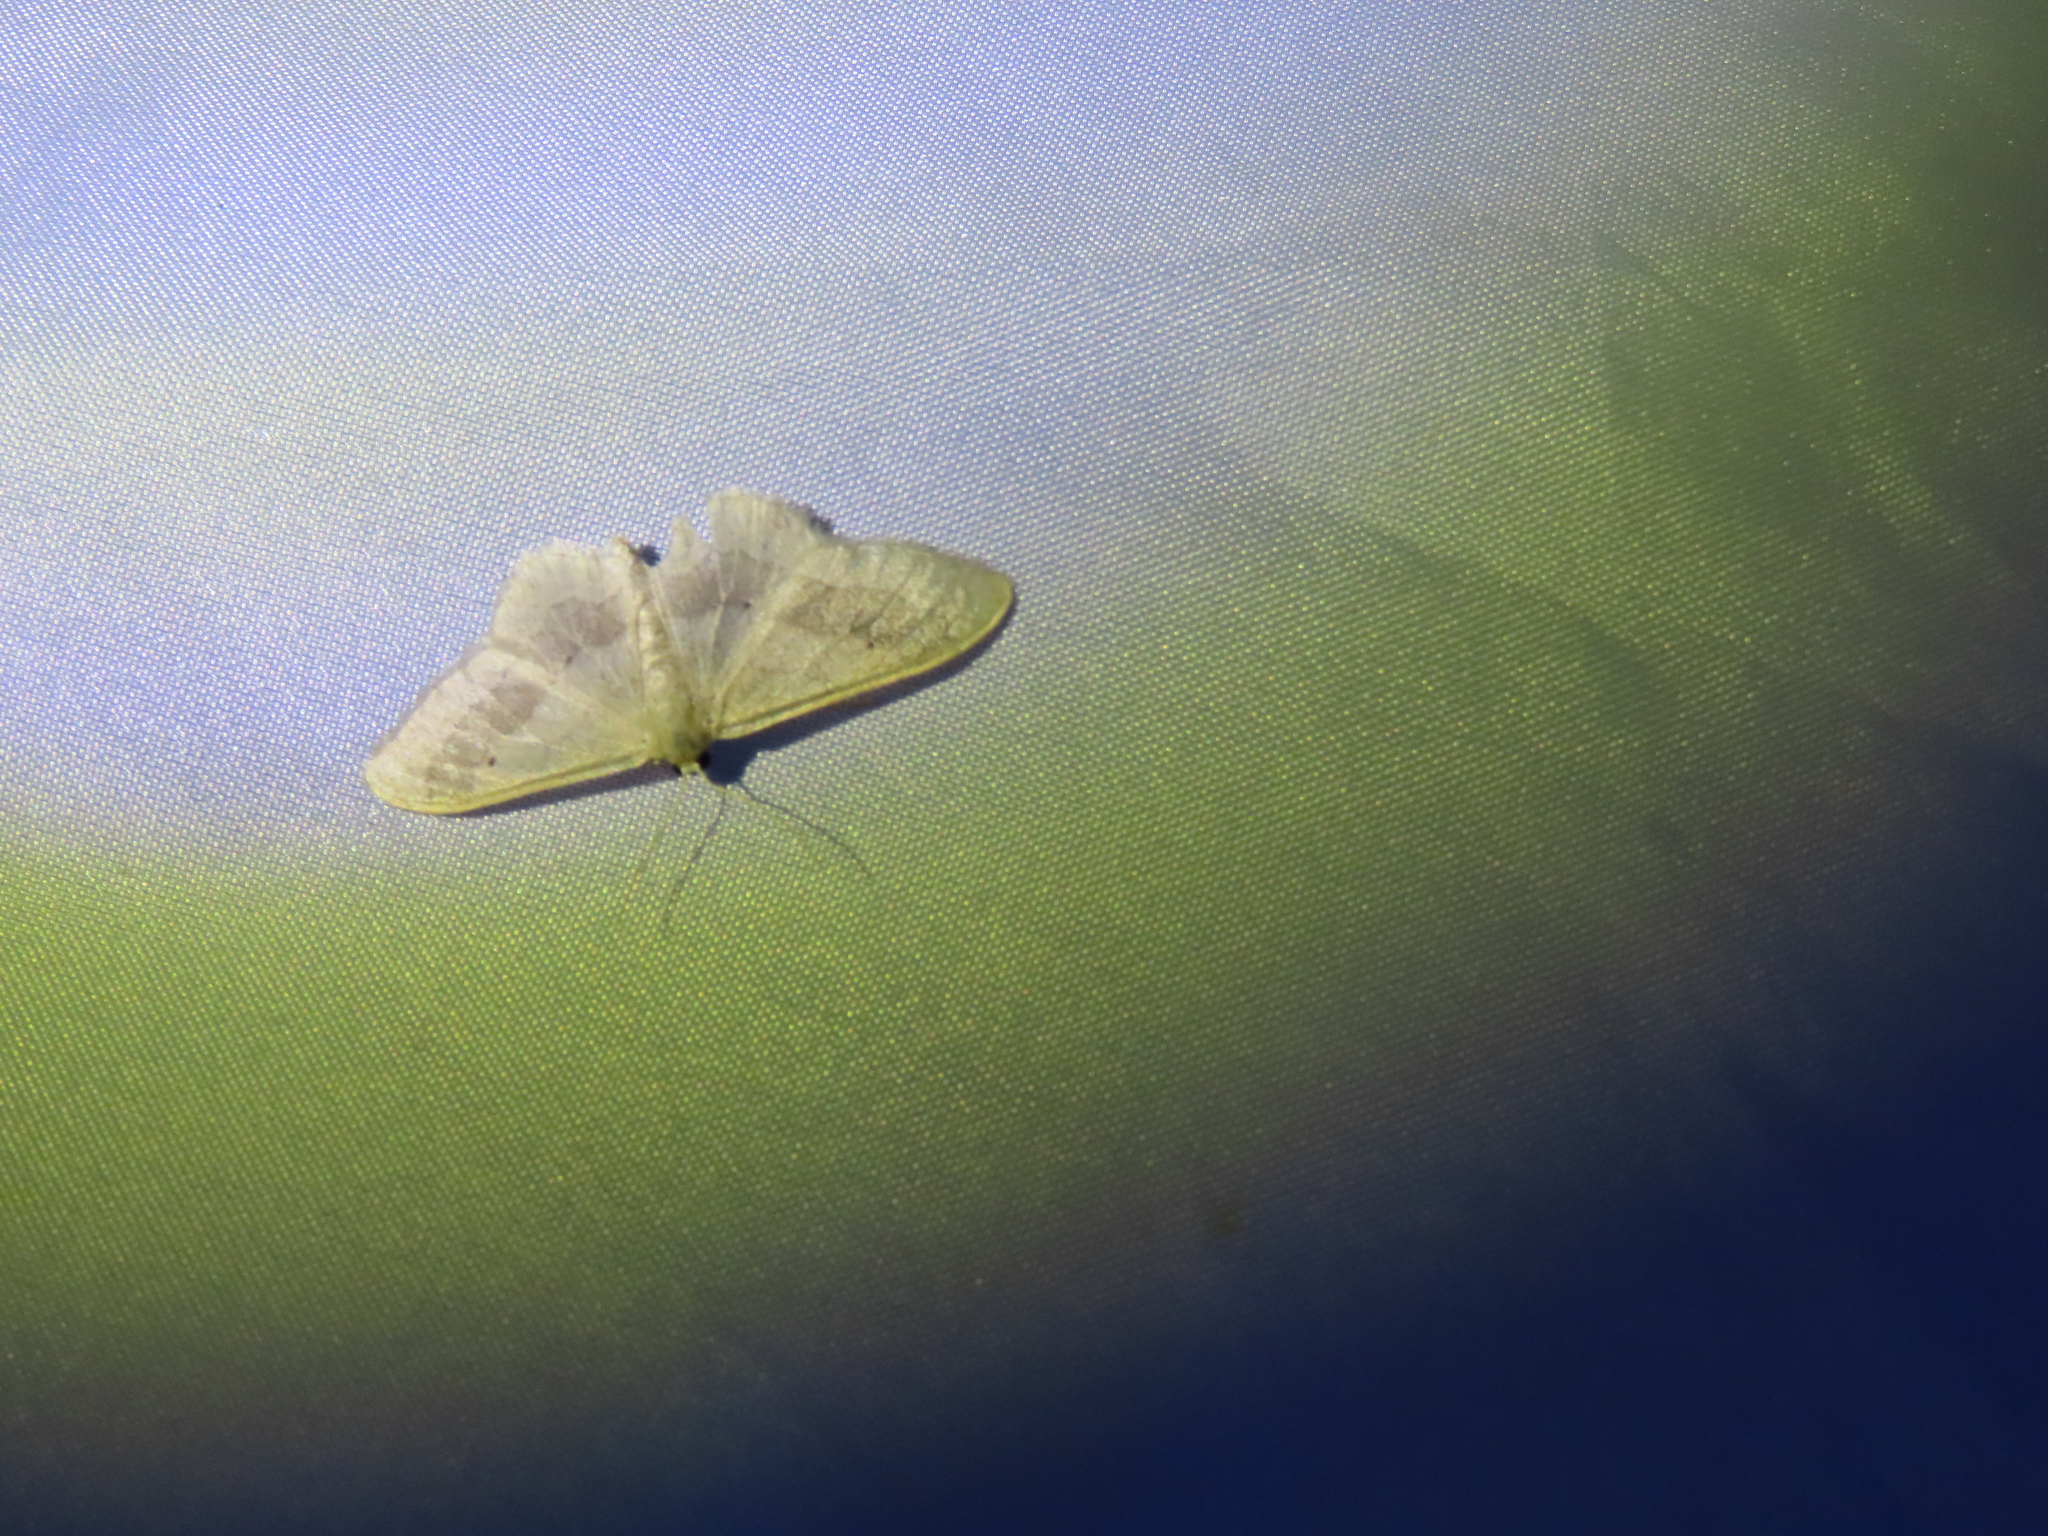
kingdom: Animalia
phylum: Arthropoda
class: Insecta
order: Lepidoptera
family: Geometridae
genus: Idaea
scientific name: Idaea aversata
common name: Riband wave
